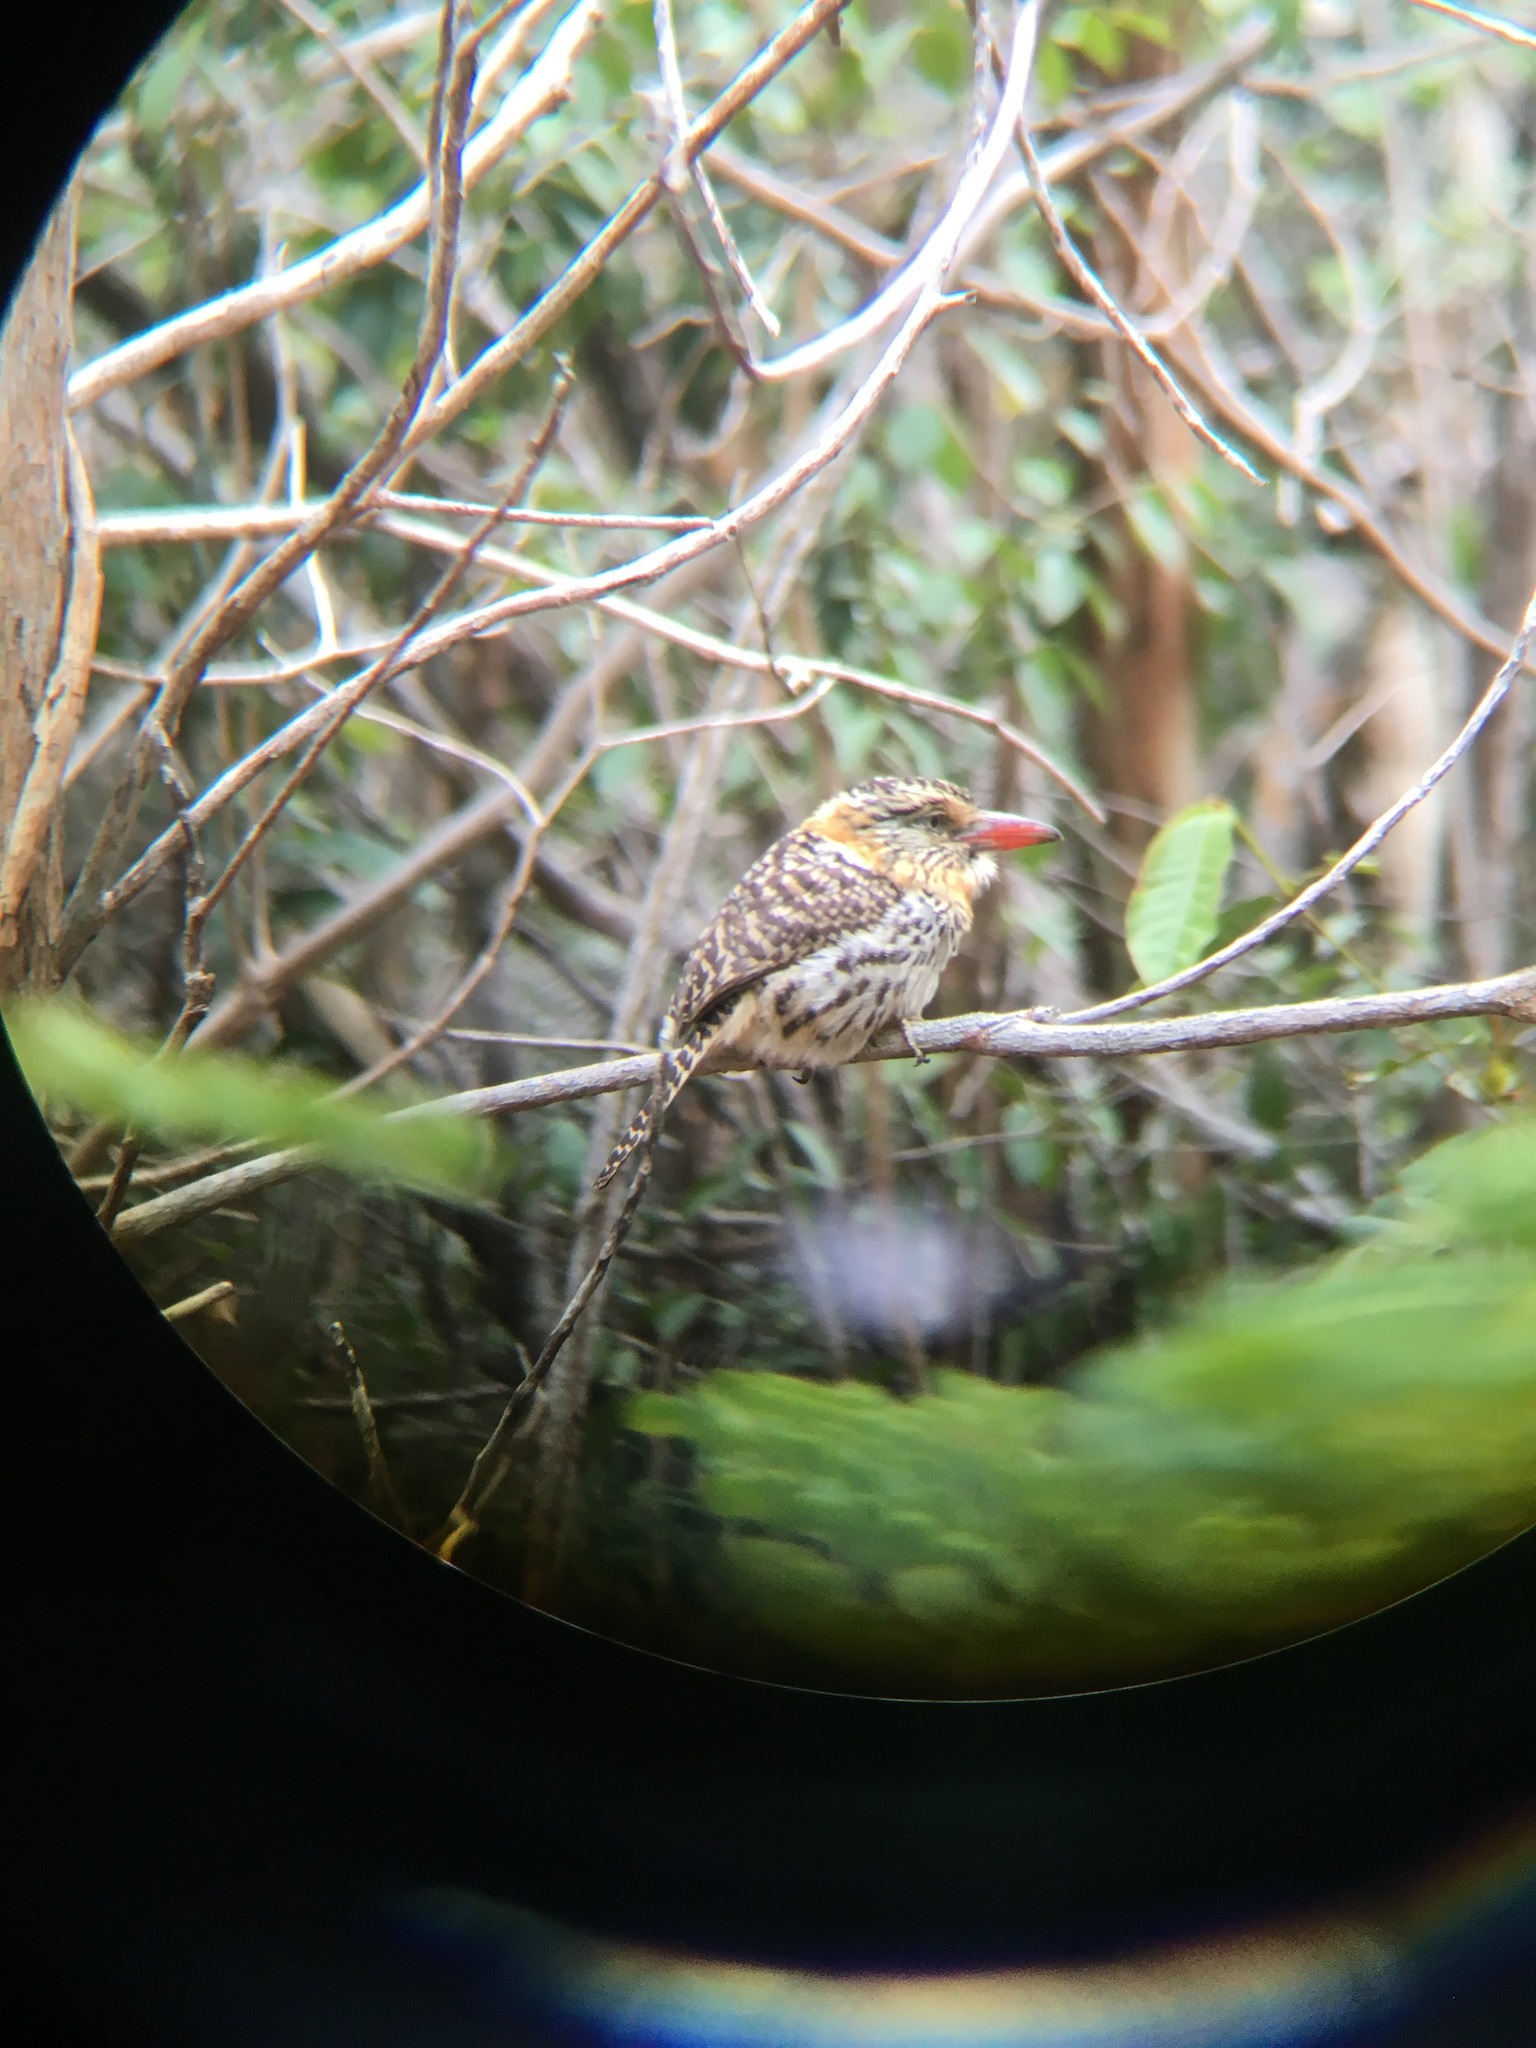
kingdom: Animalia
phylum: Chordata
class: Aves
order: Piciformes
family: Bucconidae
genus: Nystalus
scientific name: Nystalus maculatus
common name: Caatinga puffbird
